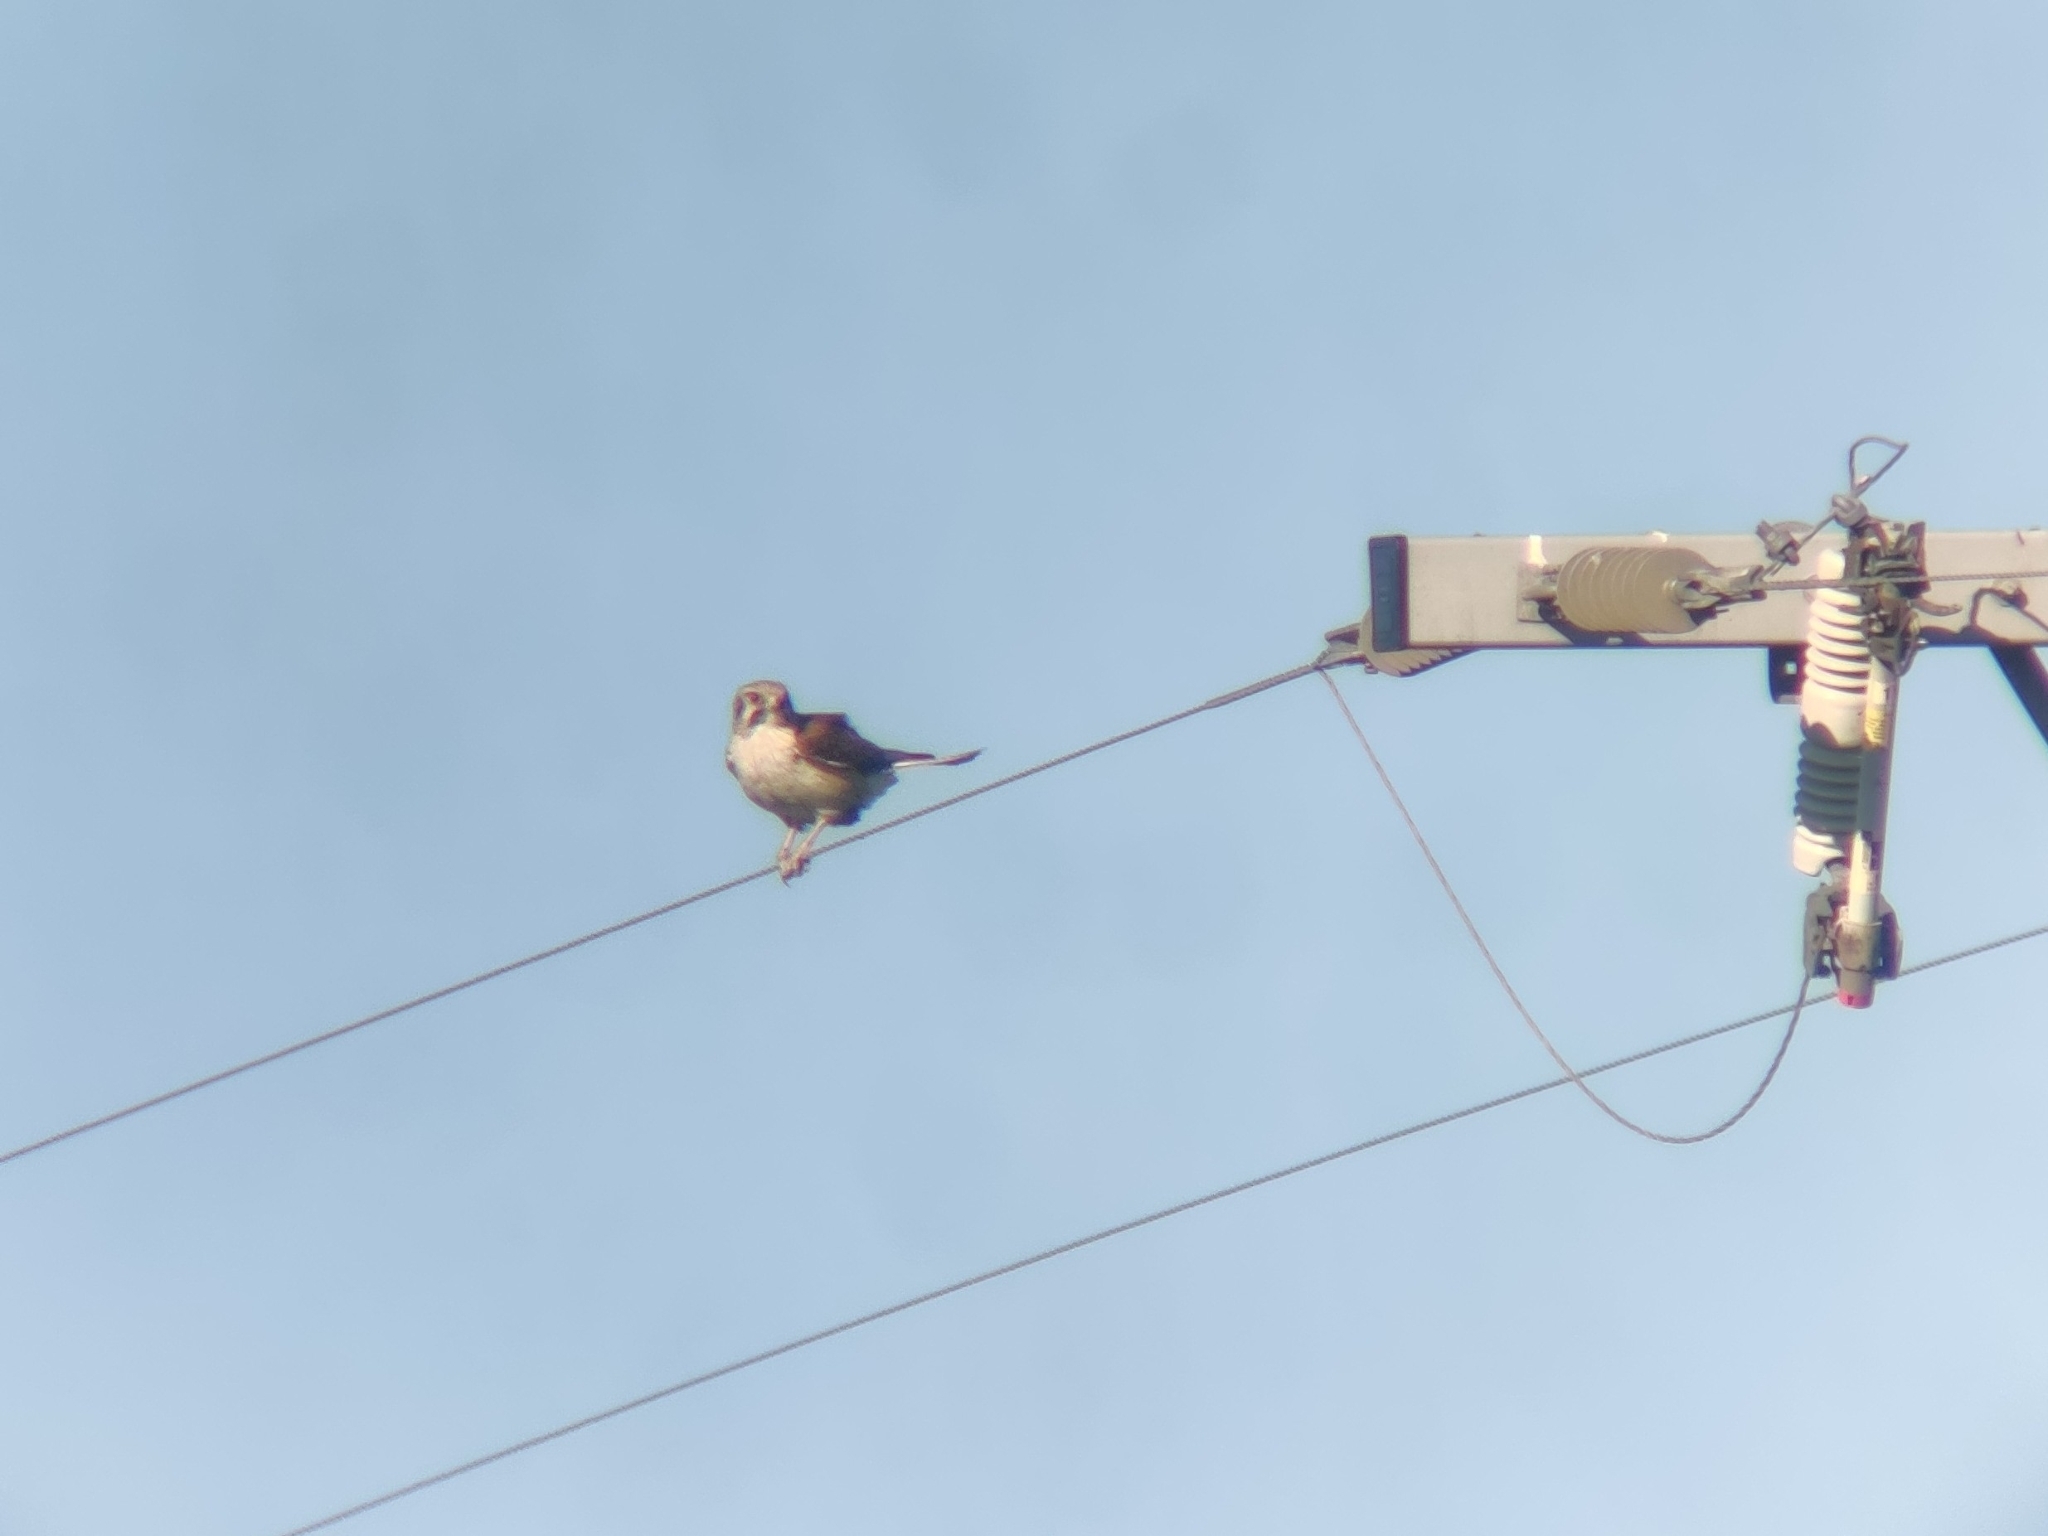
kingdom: Animalia
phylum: Chordata
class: Aves
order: Falconiformes
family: Falconidae
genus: Falco
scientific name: Falco berigora
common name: Brown falcon
